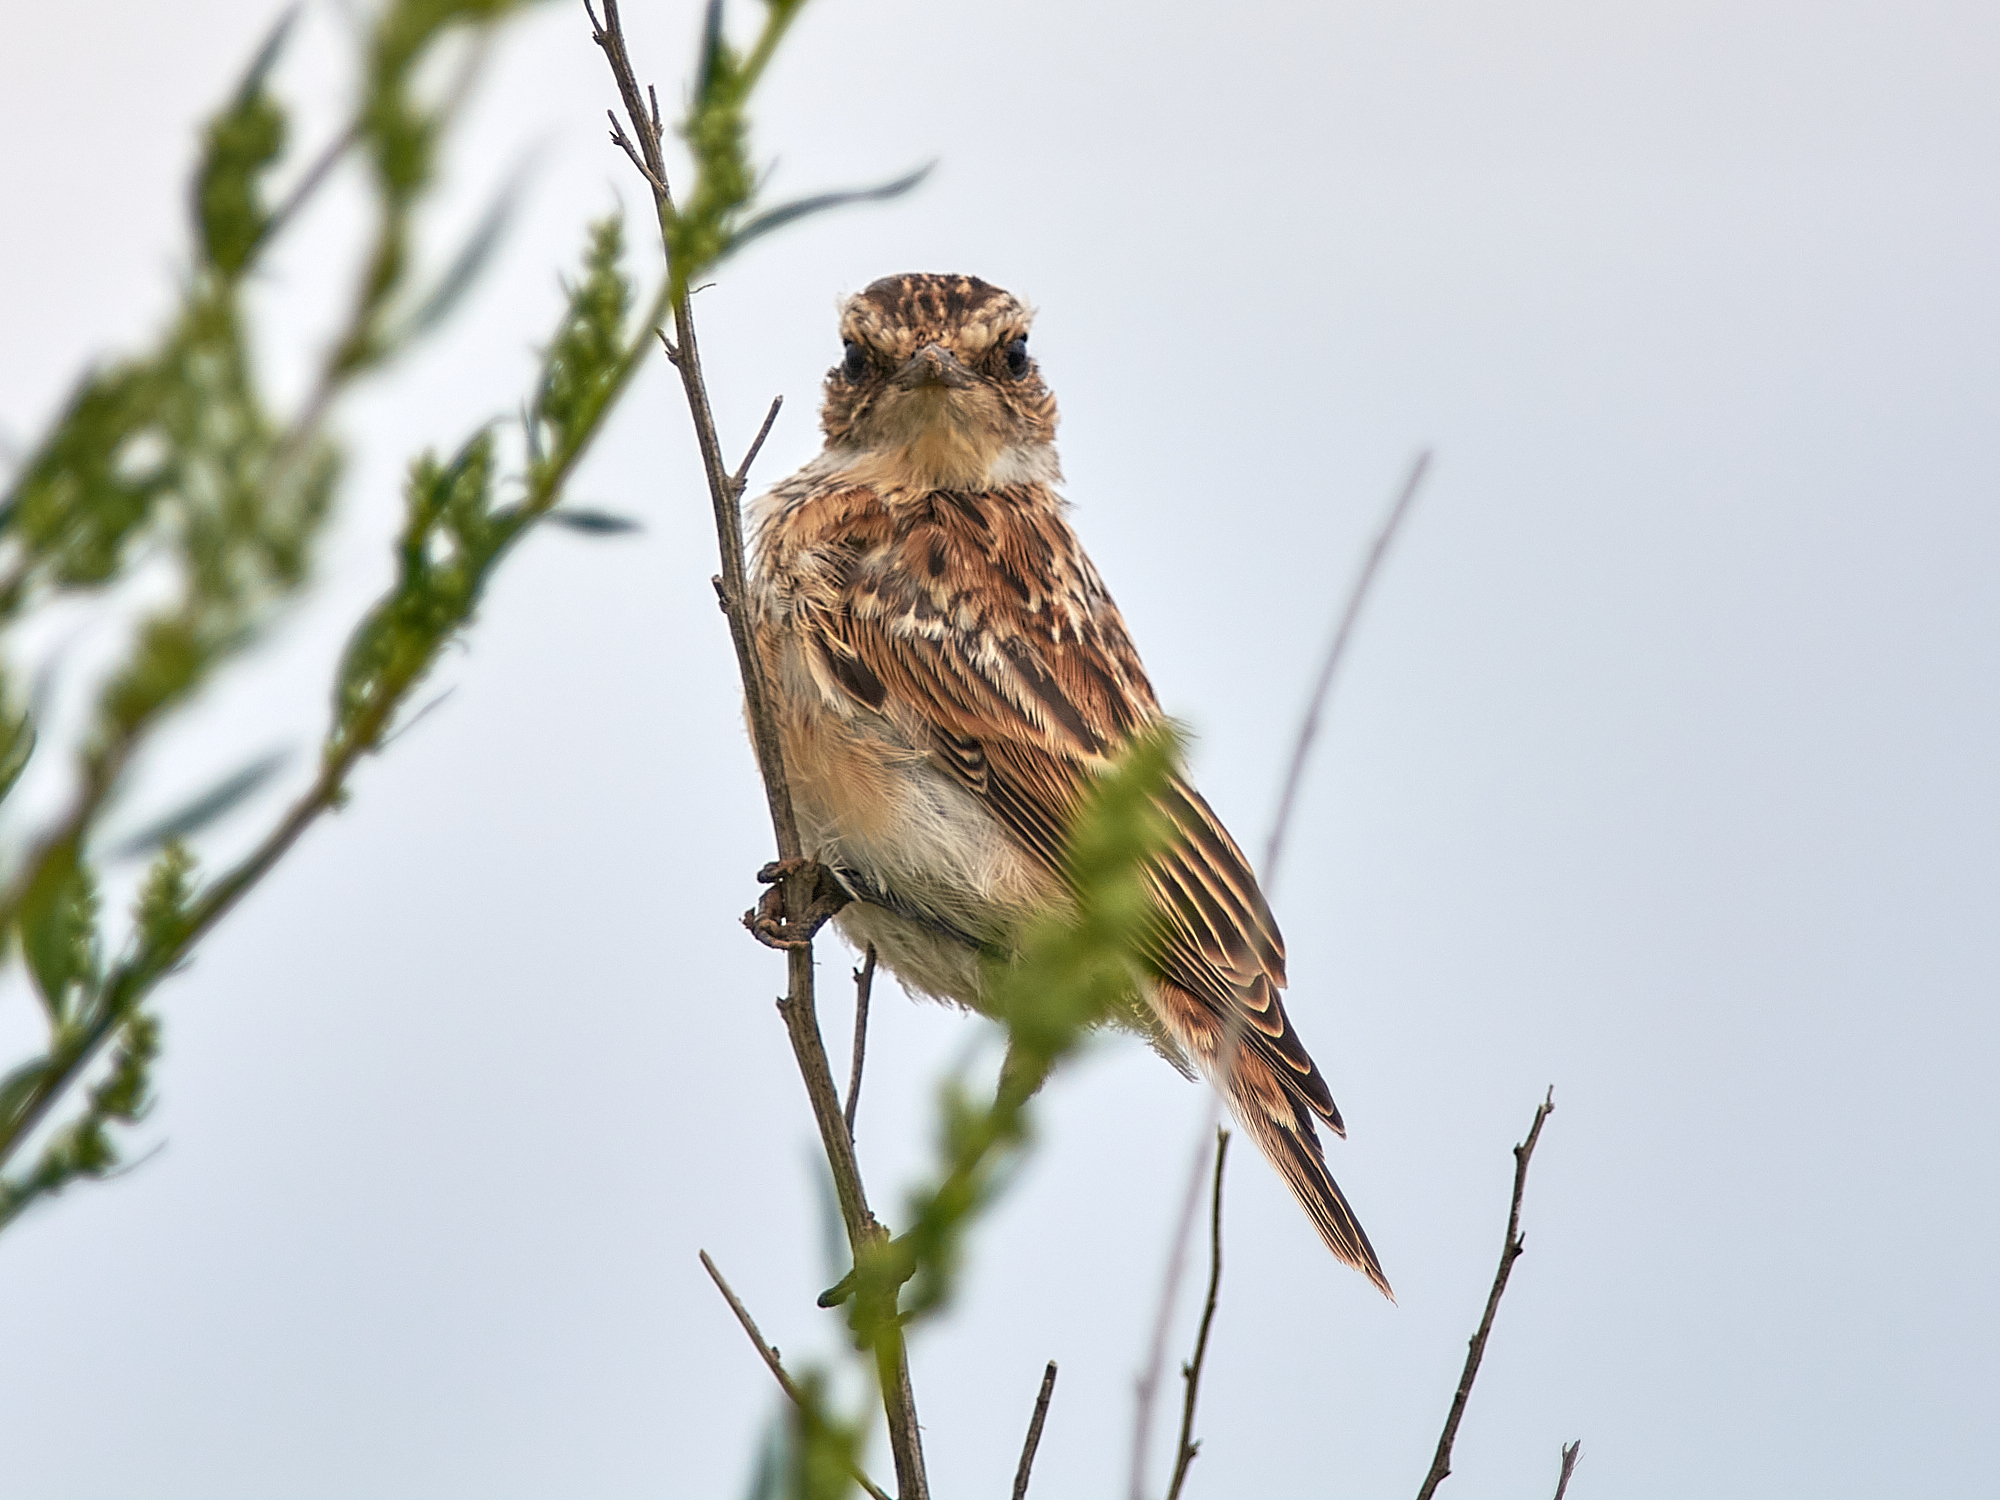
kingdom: Animalia
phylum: Chordata
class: Aves
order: Passeriformes
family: Muscicapidae
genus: Saxicola
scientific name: Saxicola rubetra
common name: Whinchat
